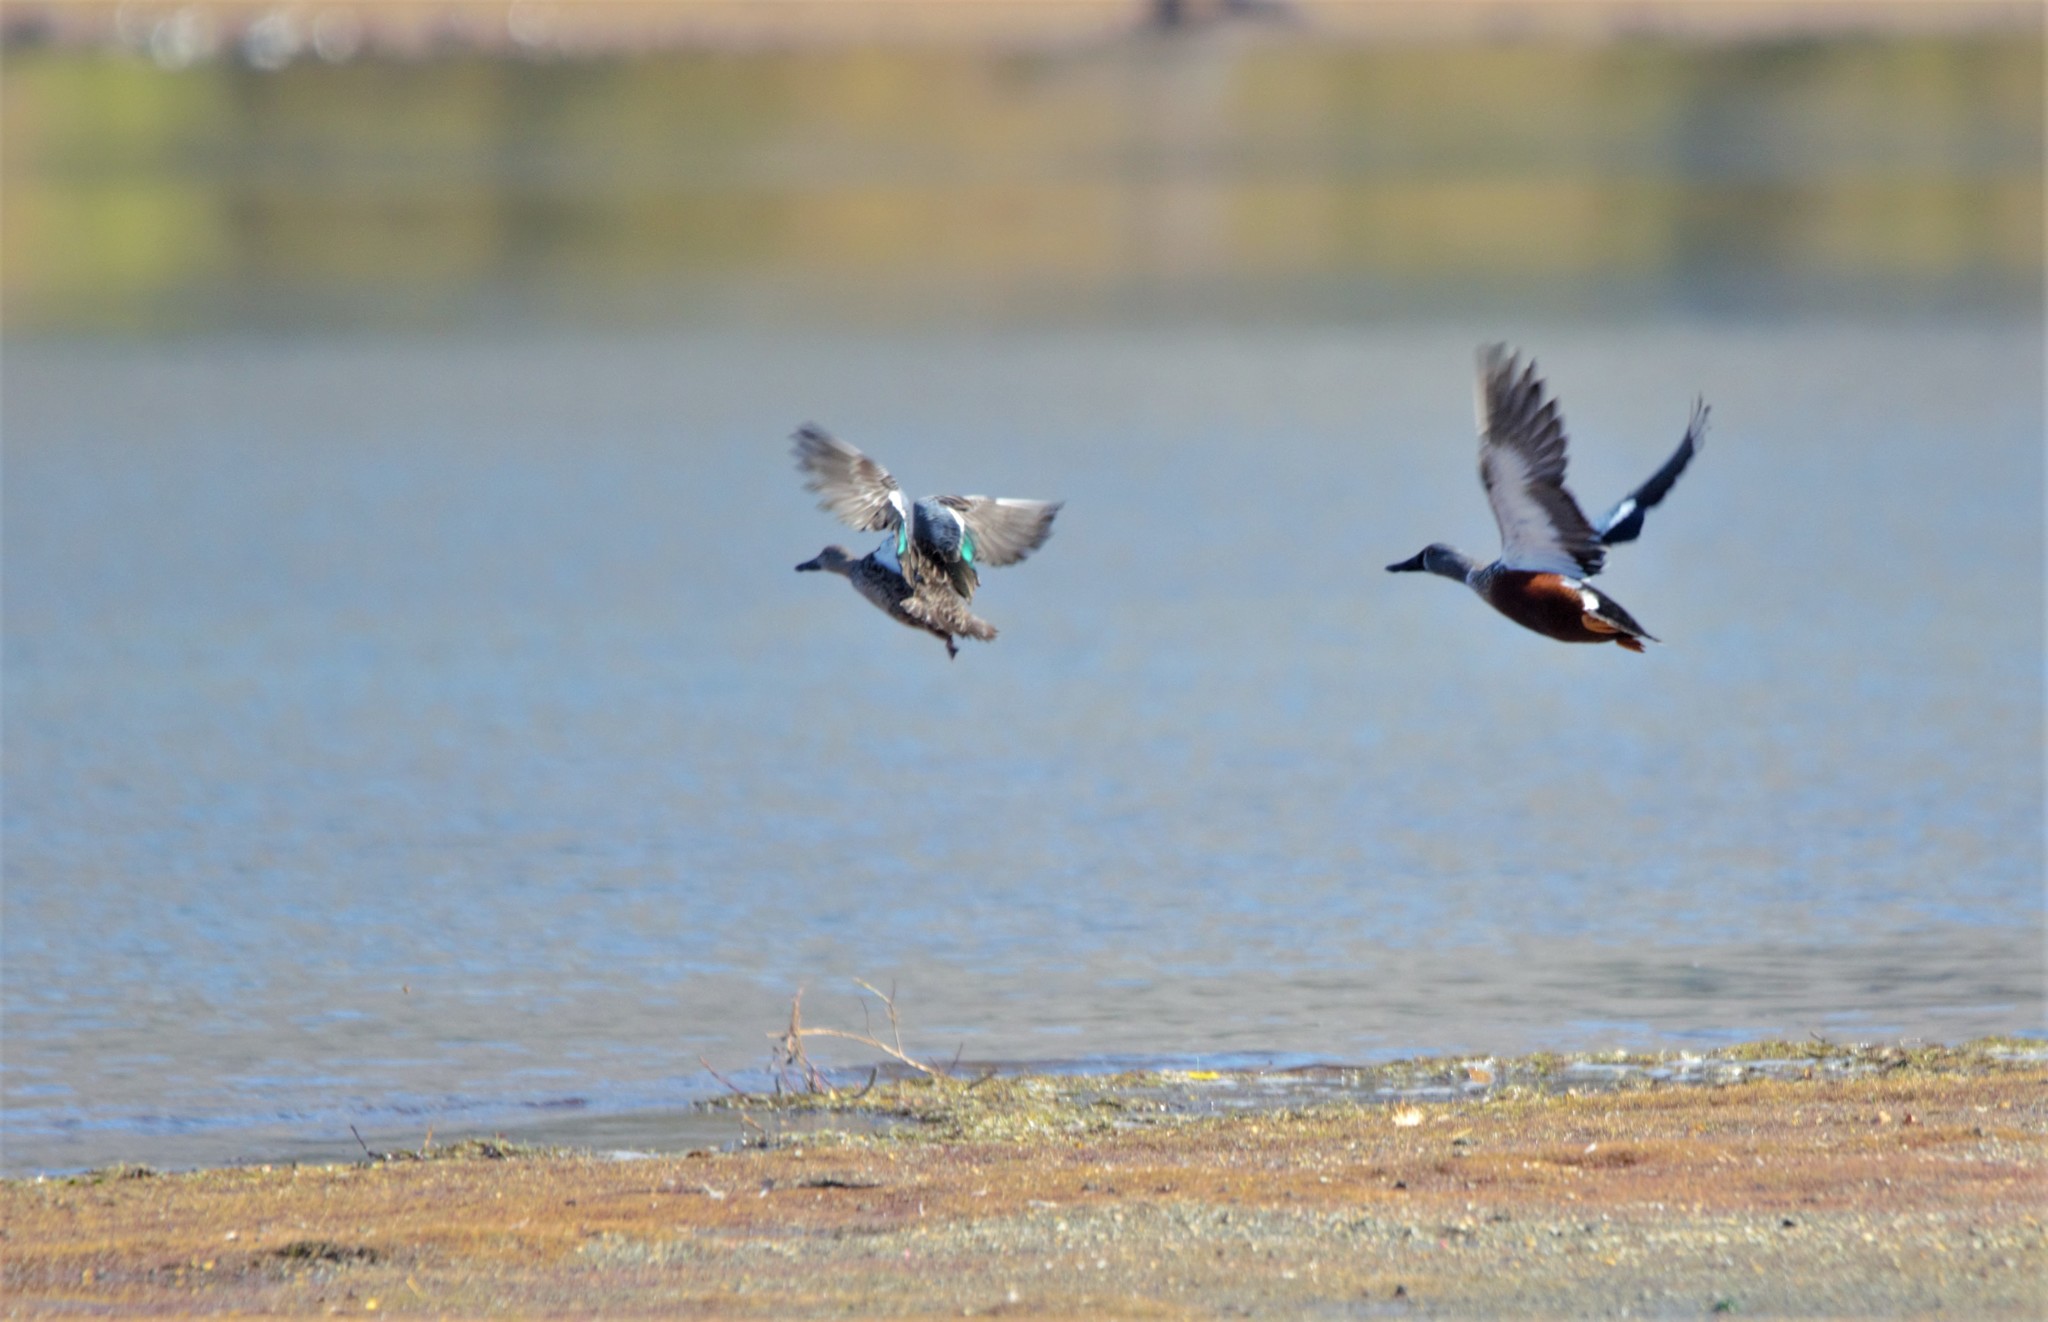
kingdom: Animalia
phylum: Chordata
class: Aves
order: Anseriformes
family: Anatidae
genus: Spatula
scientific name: Spatula rhynchotis
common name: Australian shoveler
